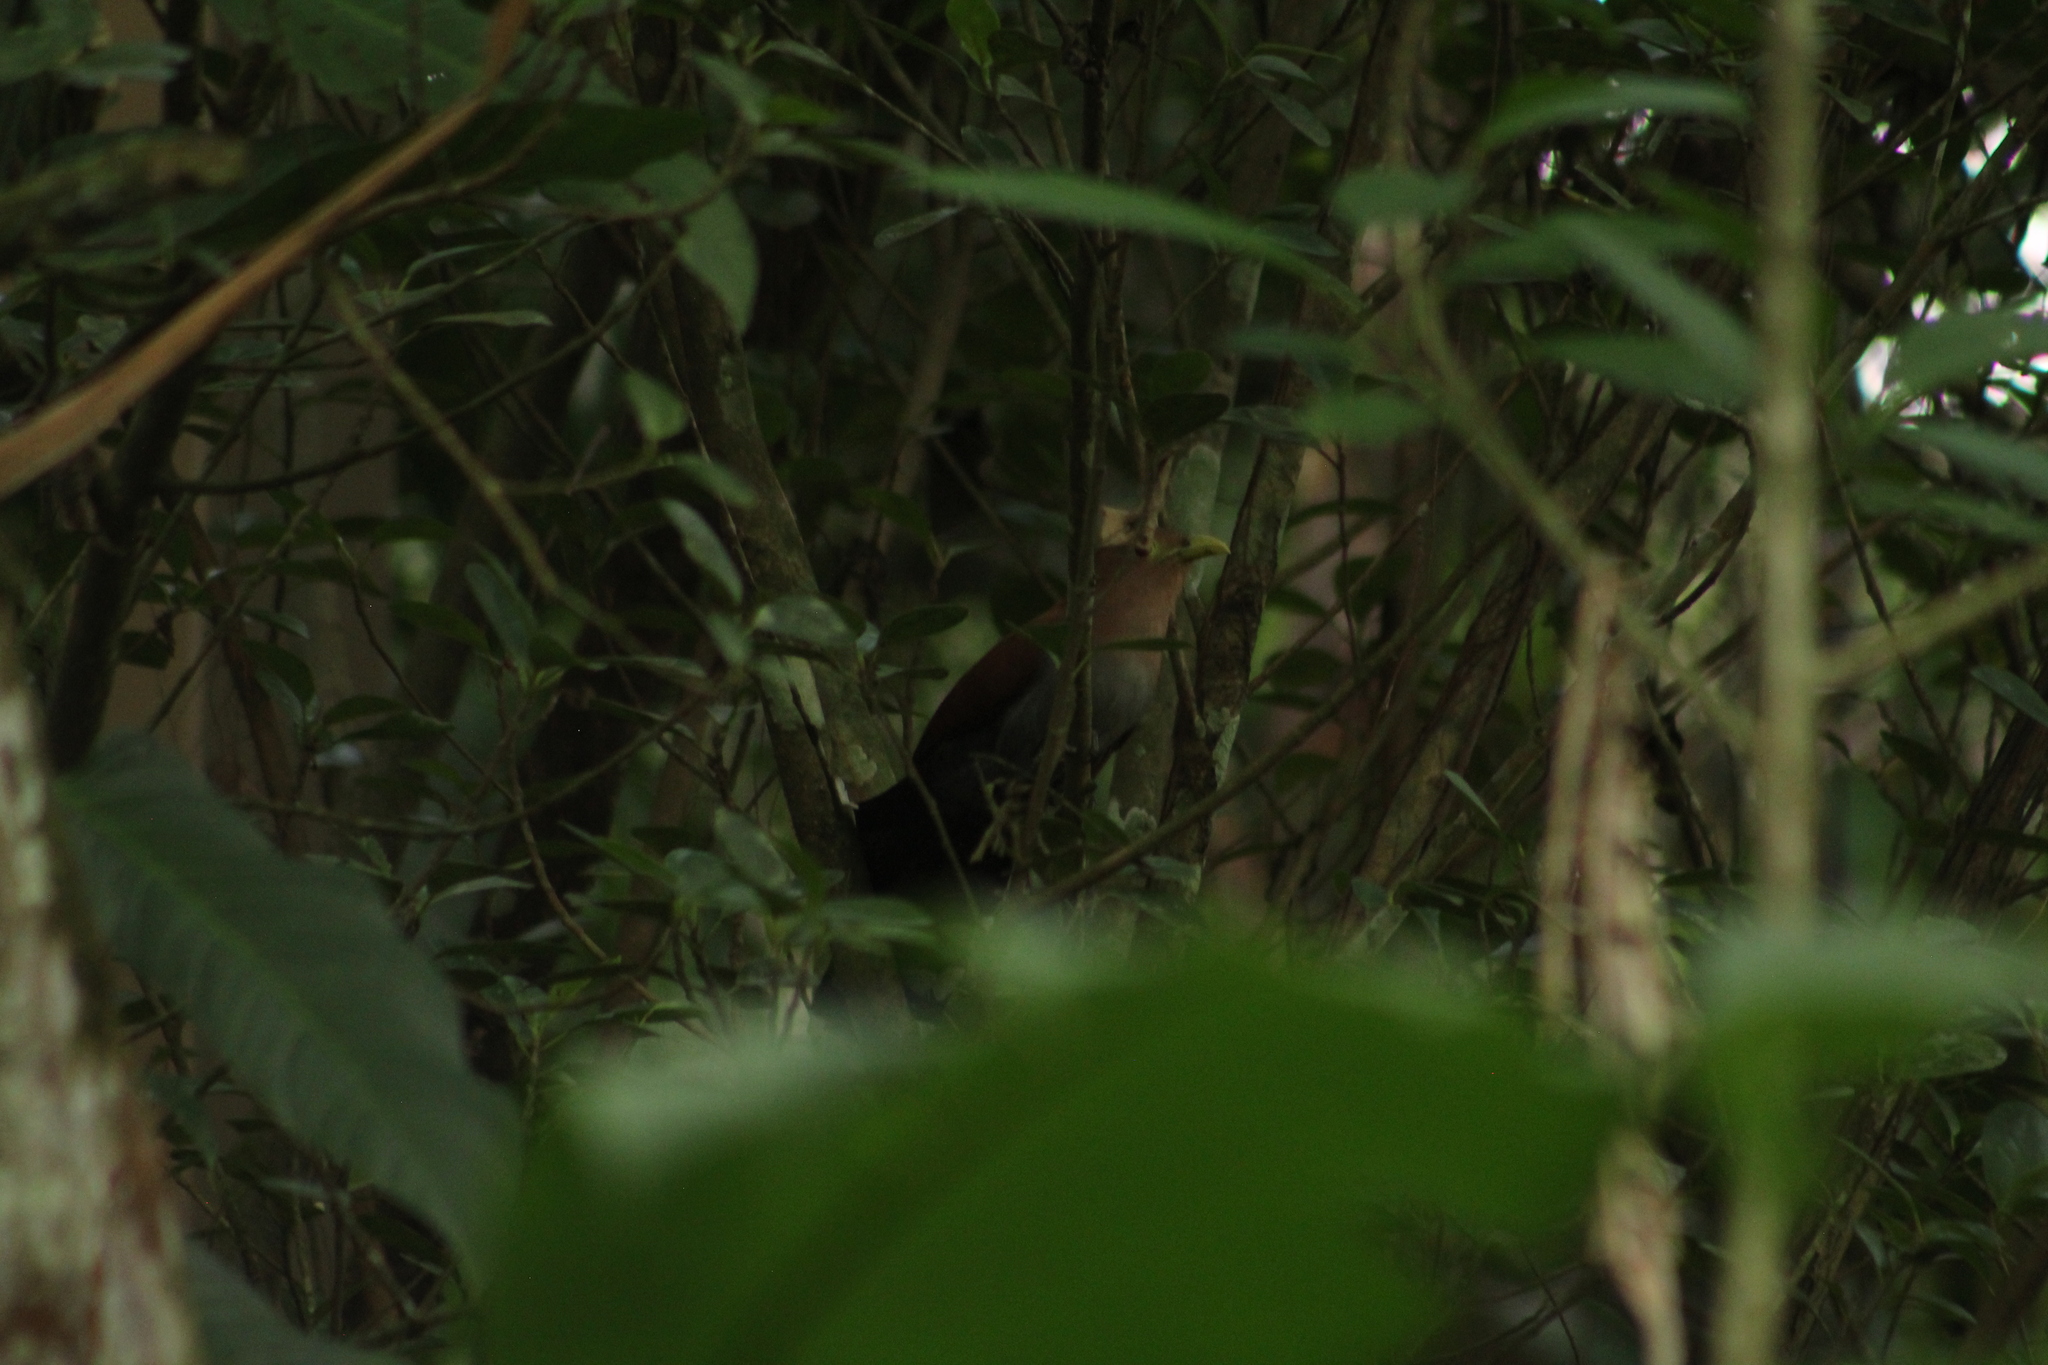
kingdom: Animalia
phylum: Chordata
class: Aves
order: Cuculiformes
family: Cuculidae
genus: Piaya
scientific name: Piaya cayana
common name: Squirrel cuckoo
